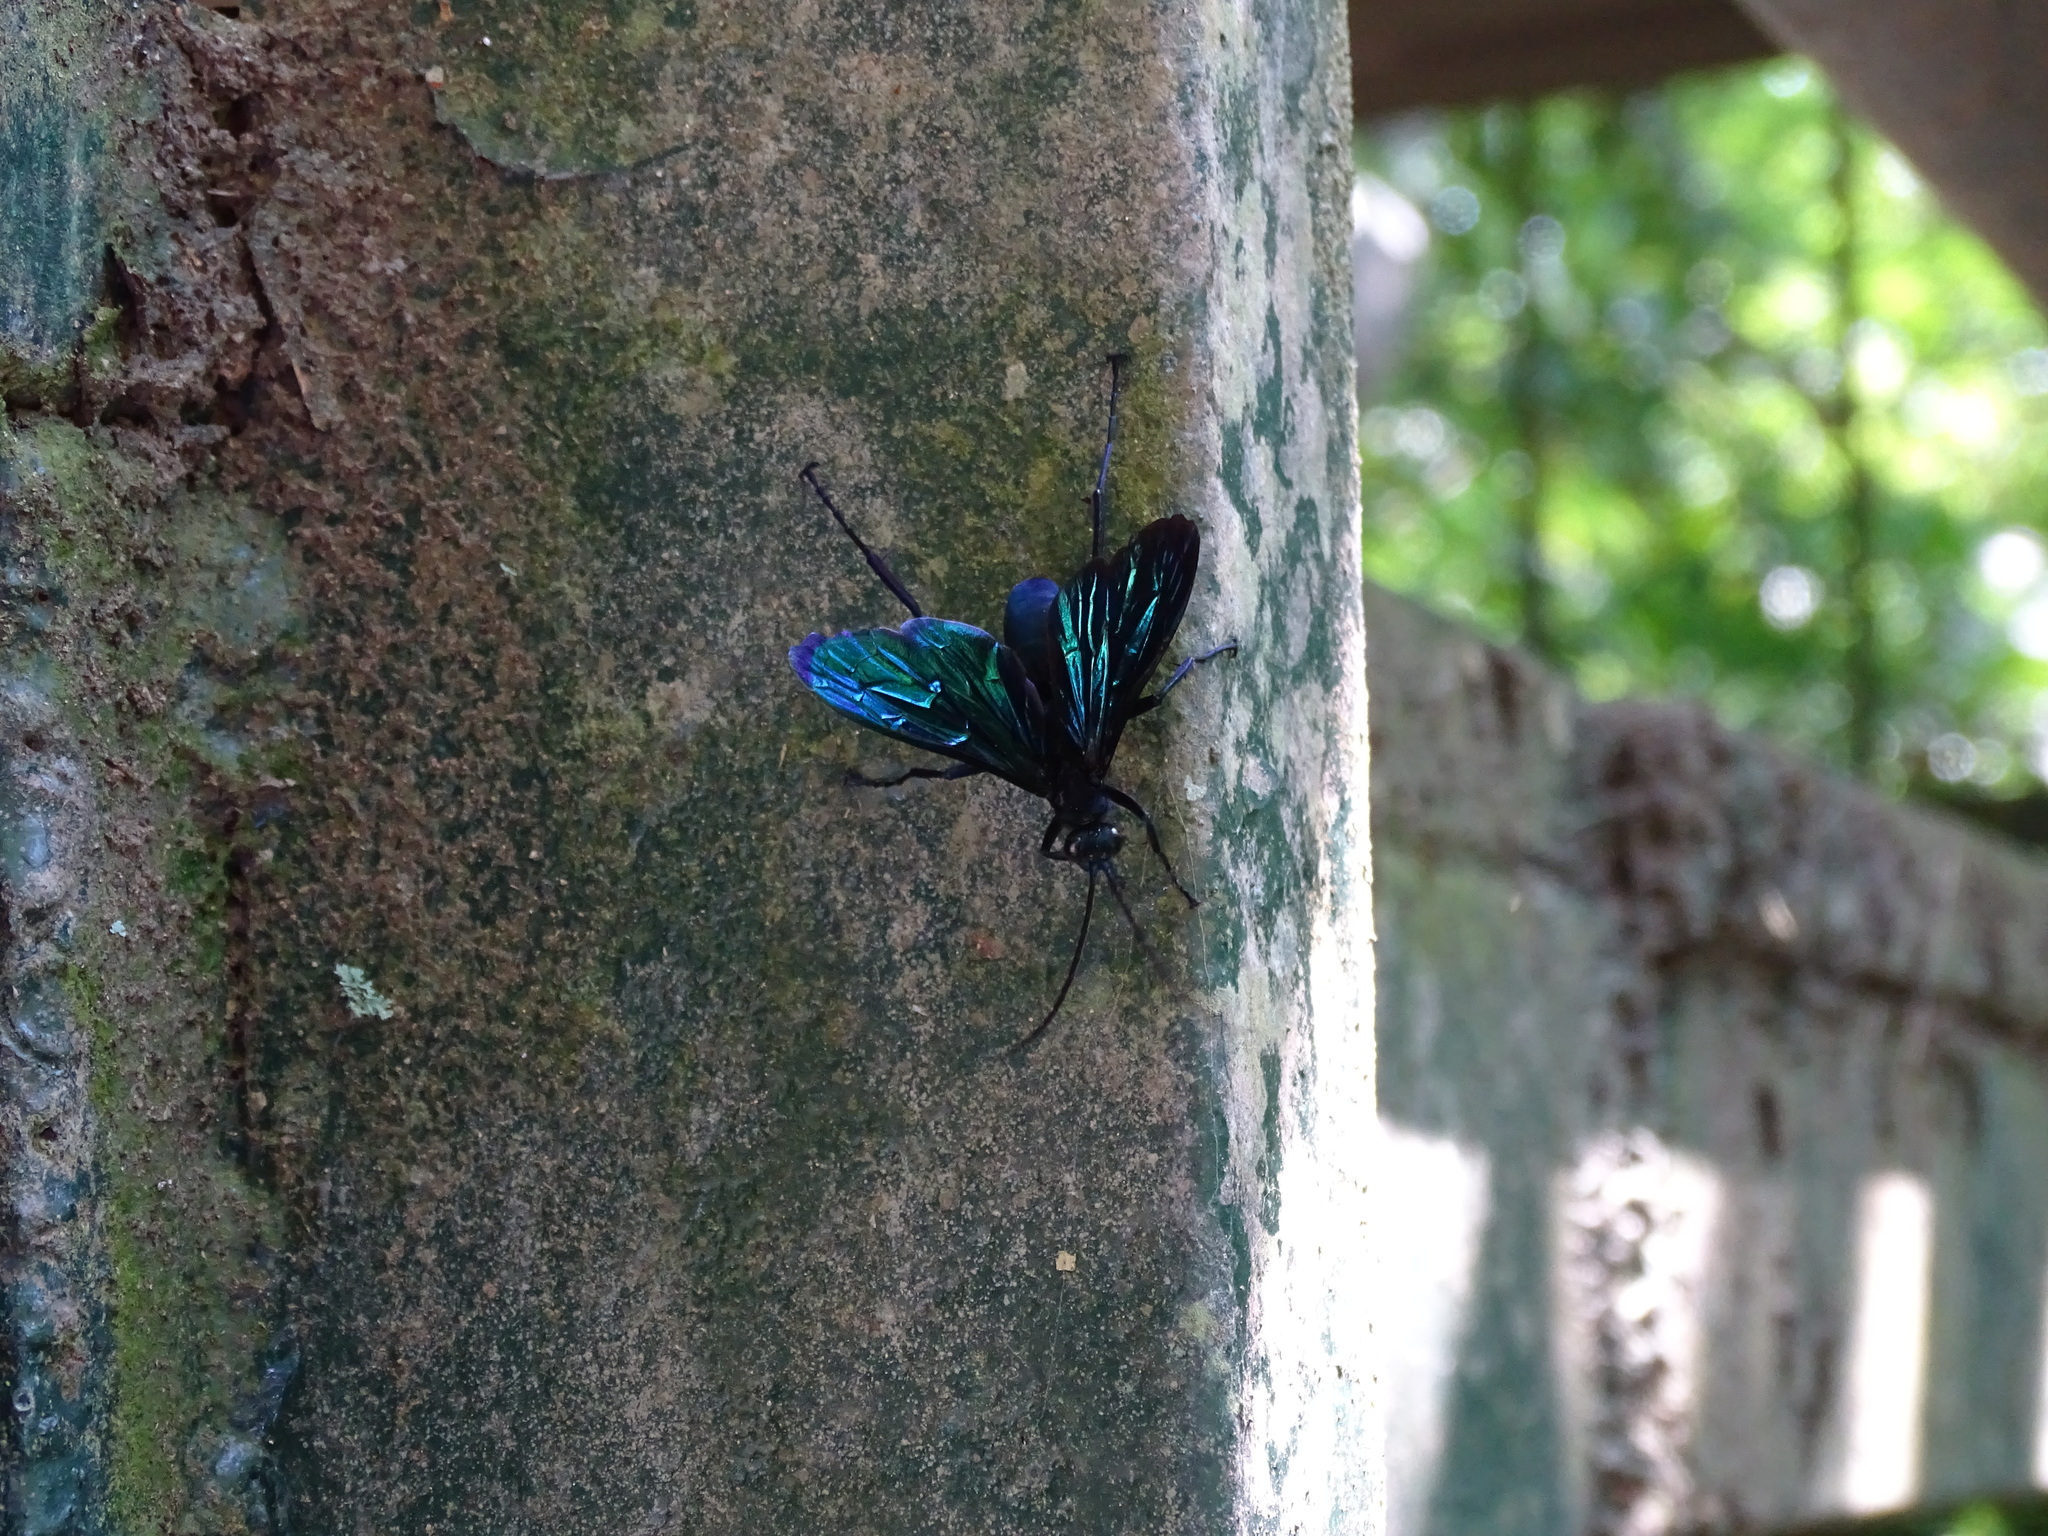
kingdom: Animalia
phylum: Arthropoda
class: Insecta
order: Hymenoptera
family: Pompilidae
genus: Java
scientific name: Java nigrita
